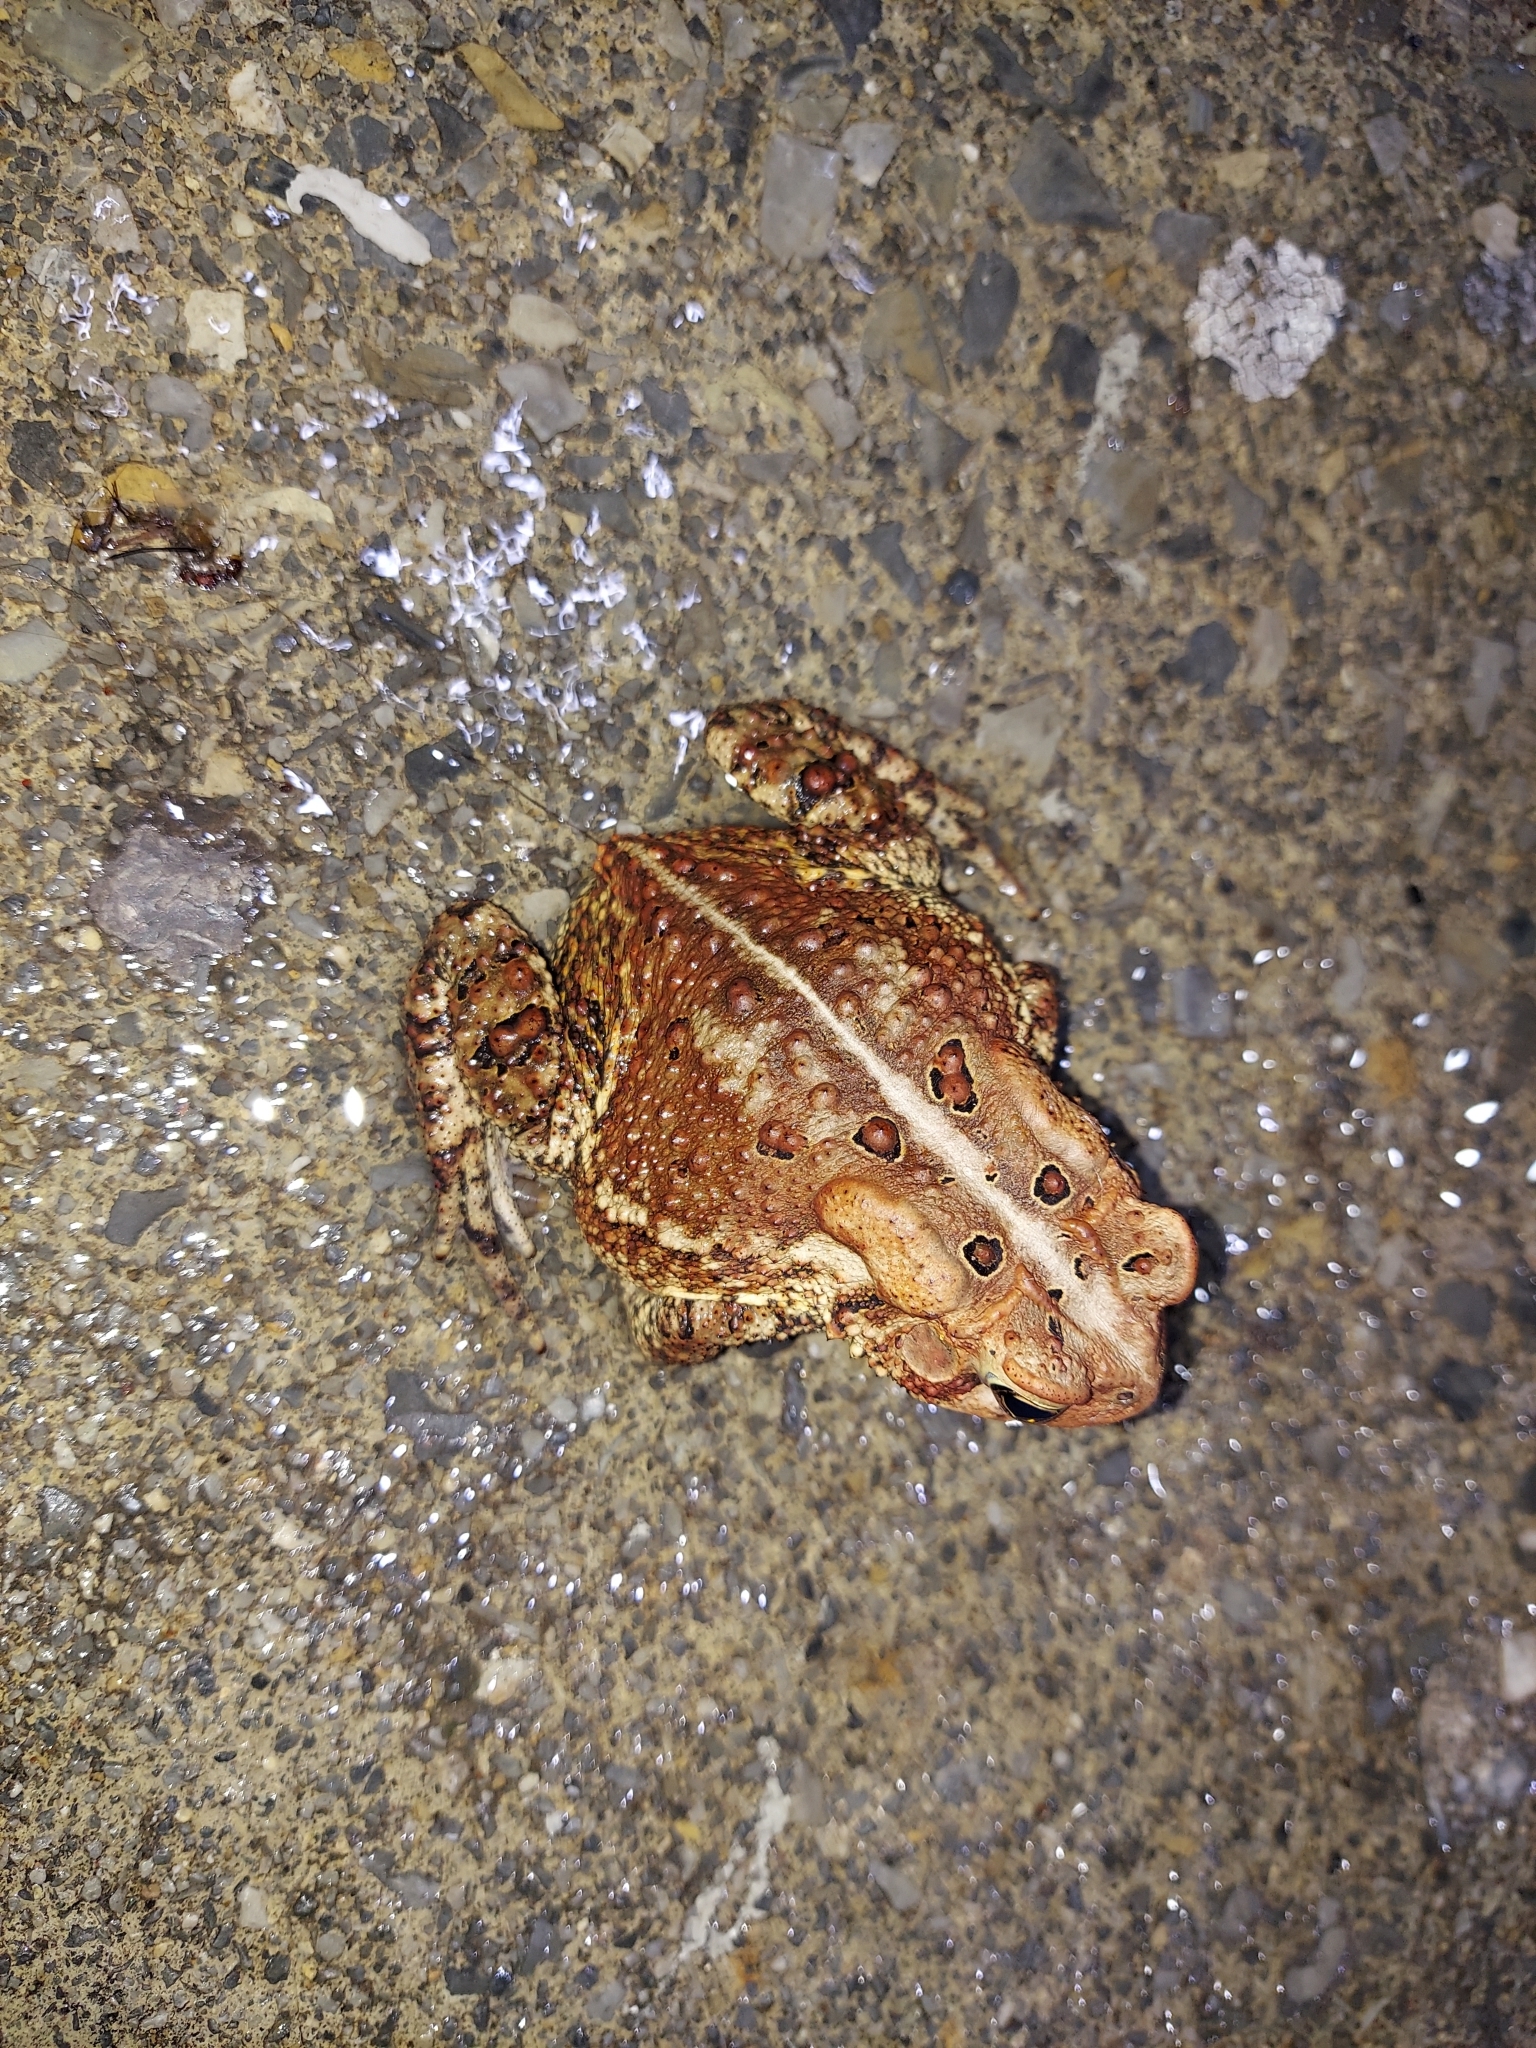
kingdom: Animalia
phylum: Chordata
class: Amphibia
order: Anura
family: Bufonidae
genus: Anaxyrus
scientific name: Anaxyrus americanus
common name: American toad
